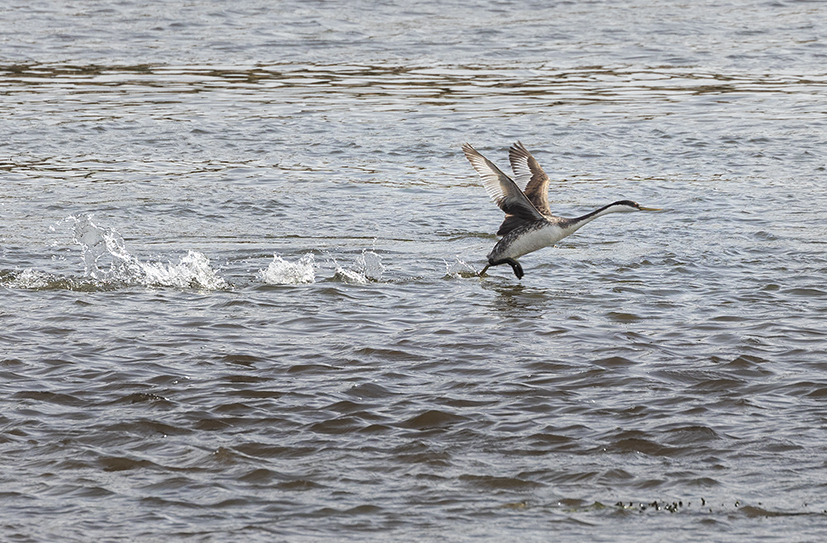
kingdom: Animalia
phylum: Chordata
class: Aves
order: Podicipediformes
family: Podicipedidae
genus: Aechmophorus
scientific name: Aechmophorus occidentalis
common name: Western grebe
